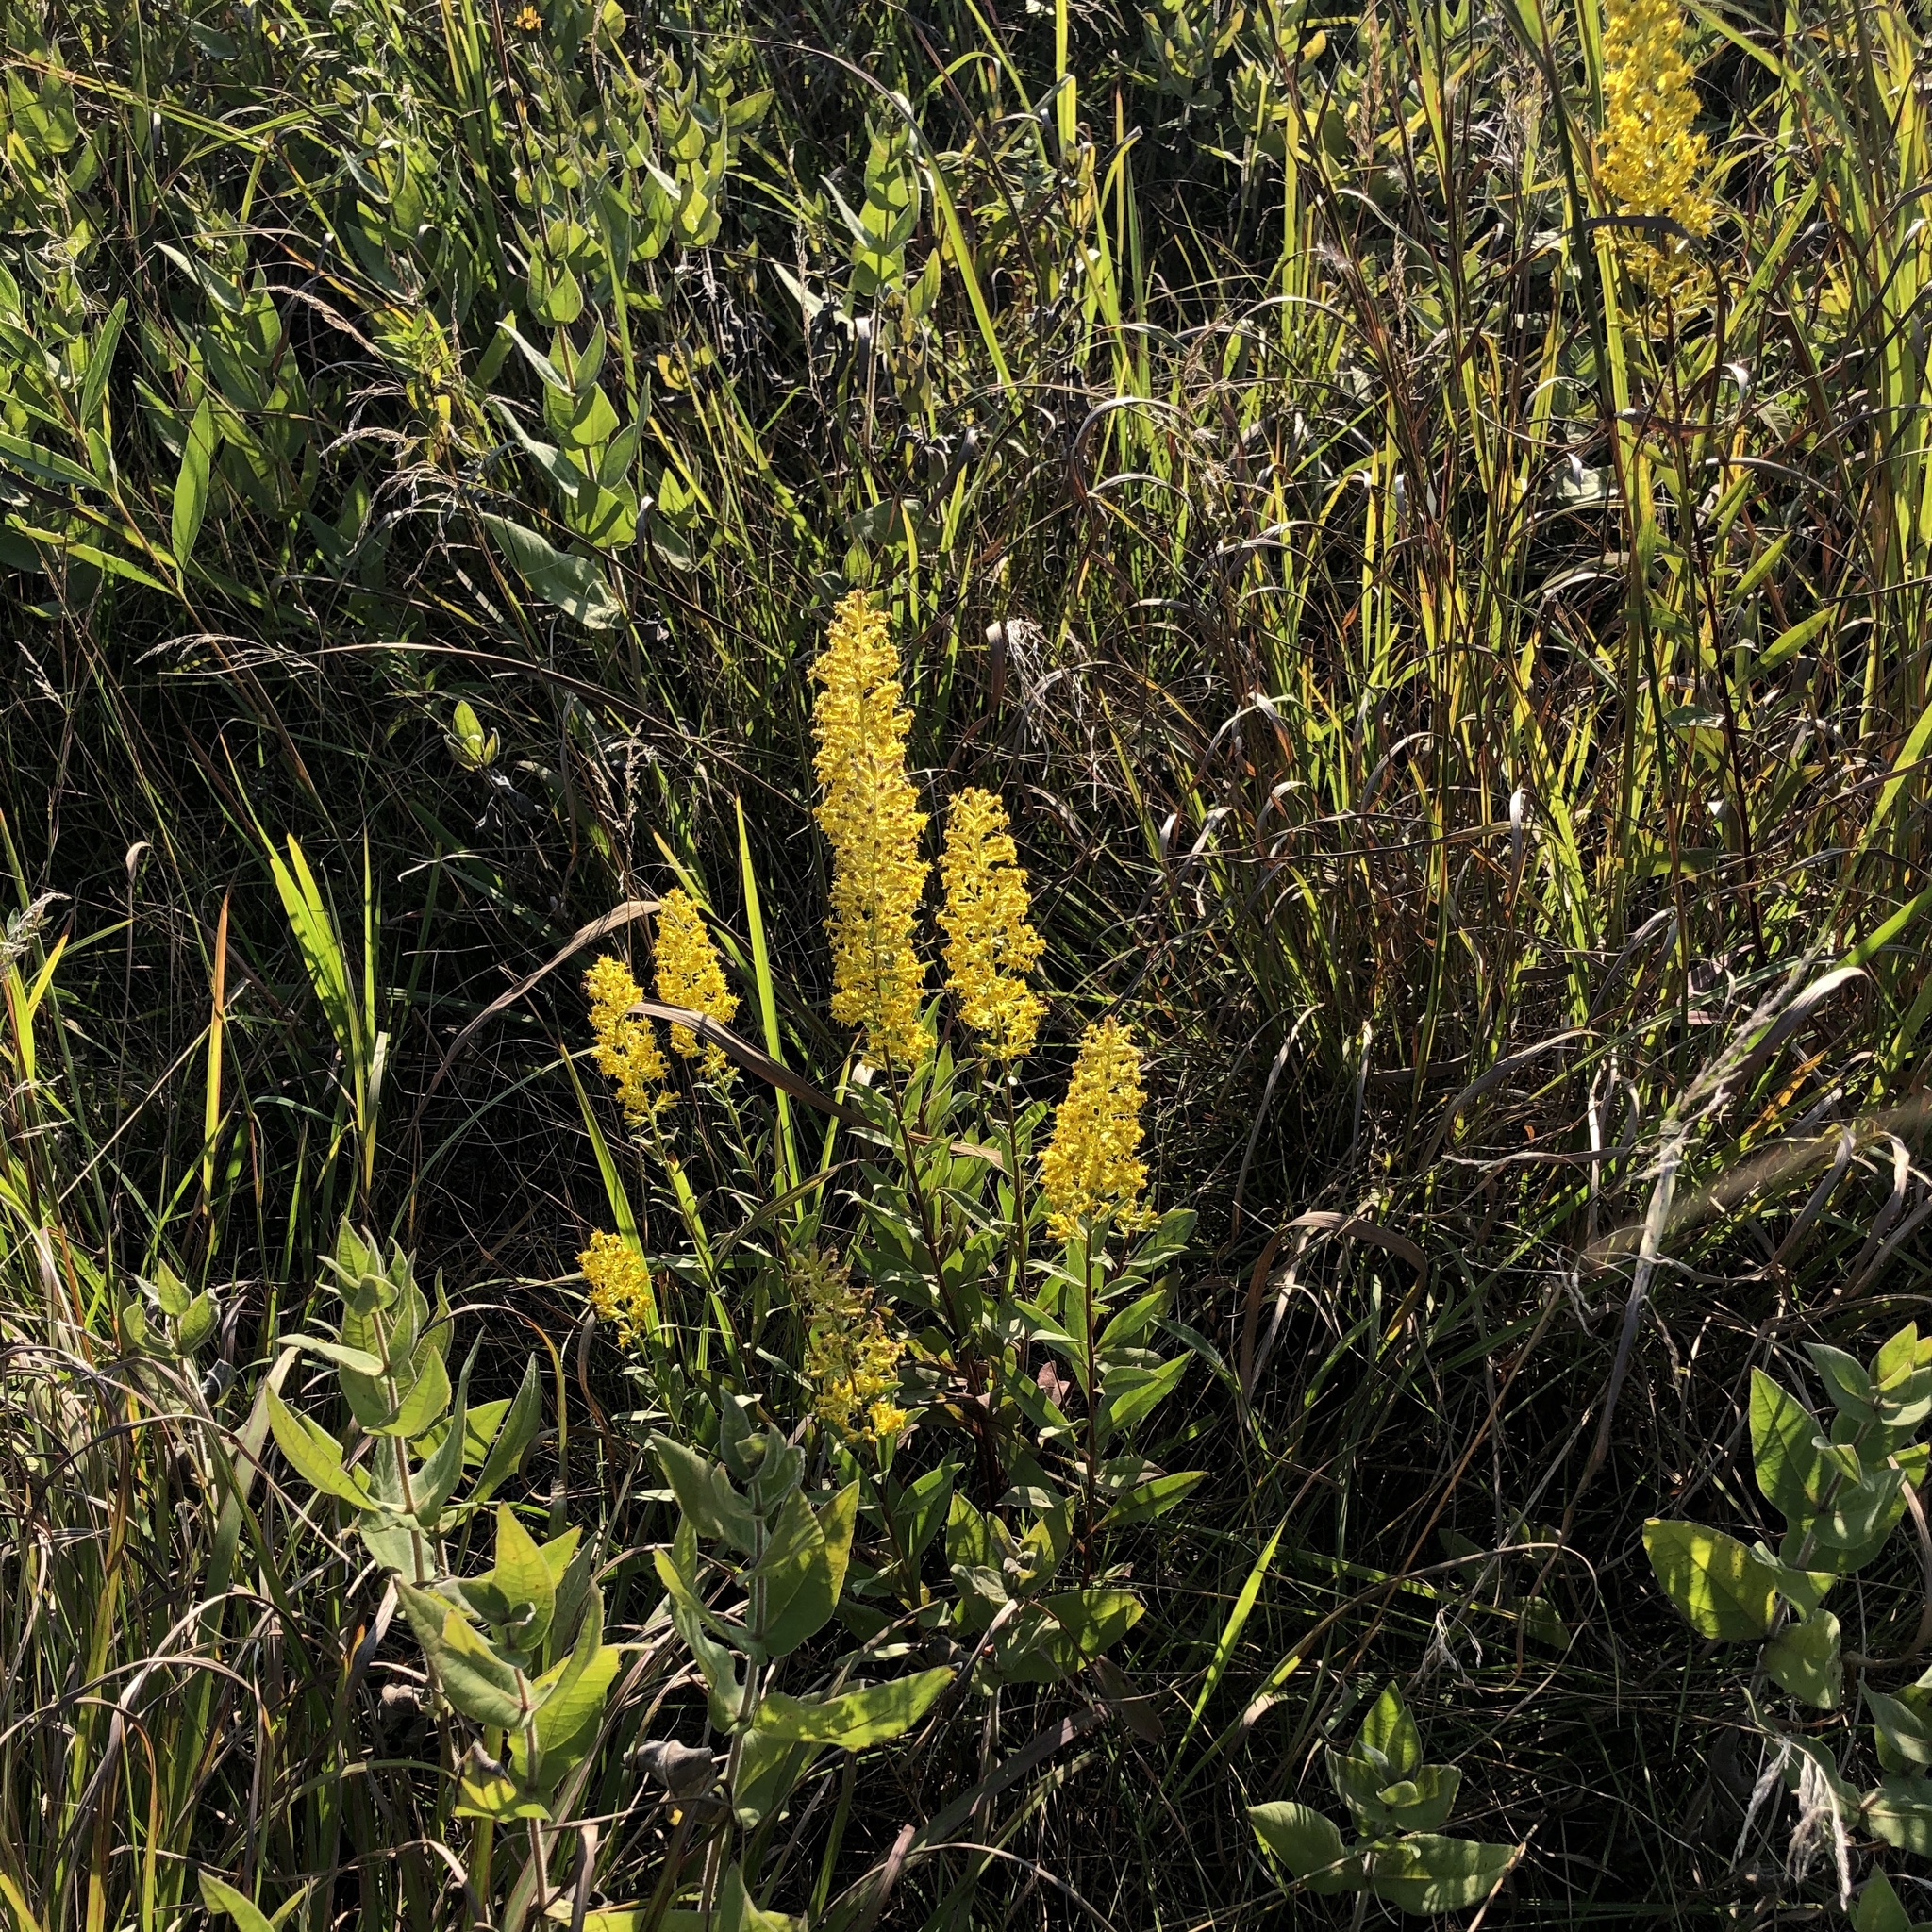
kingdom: Plantae
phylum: Tracheophyta
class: Magnoliopsida
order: Asterales
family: Asteraceae
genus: Solidago
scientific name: Solidago rigidiuscula
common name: Stiff-leaved showy goldenrod
